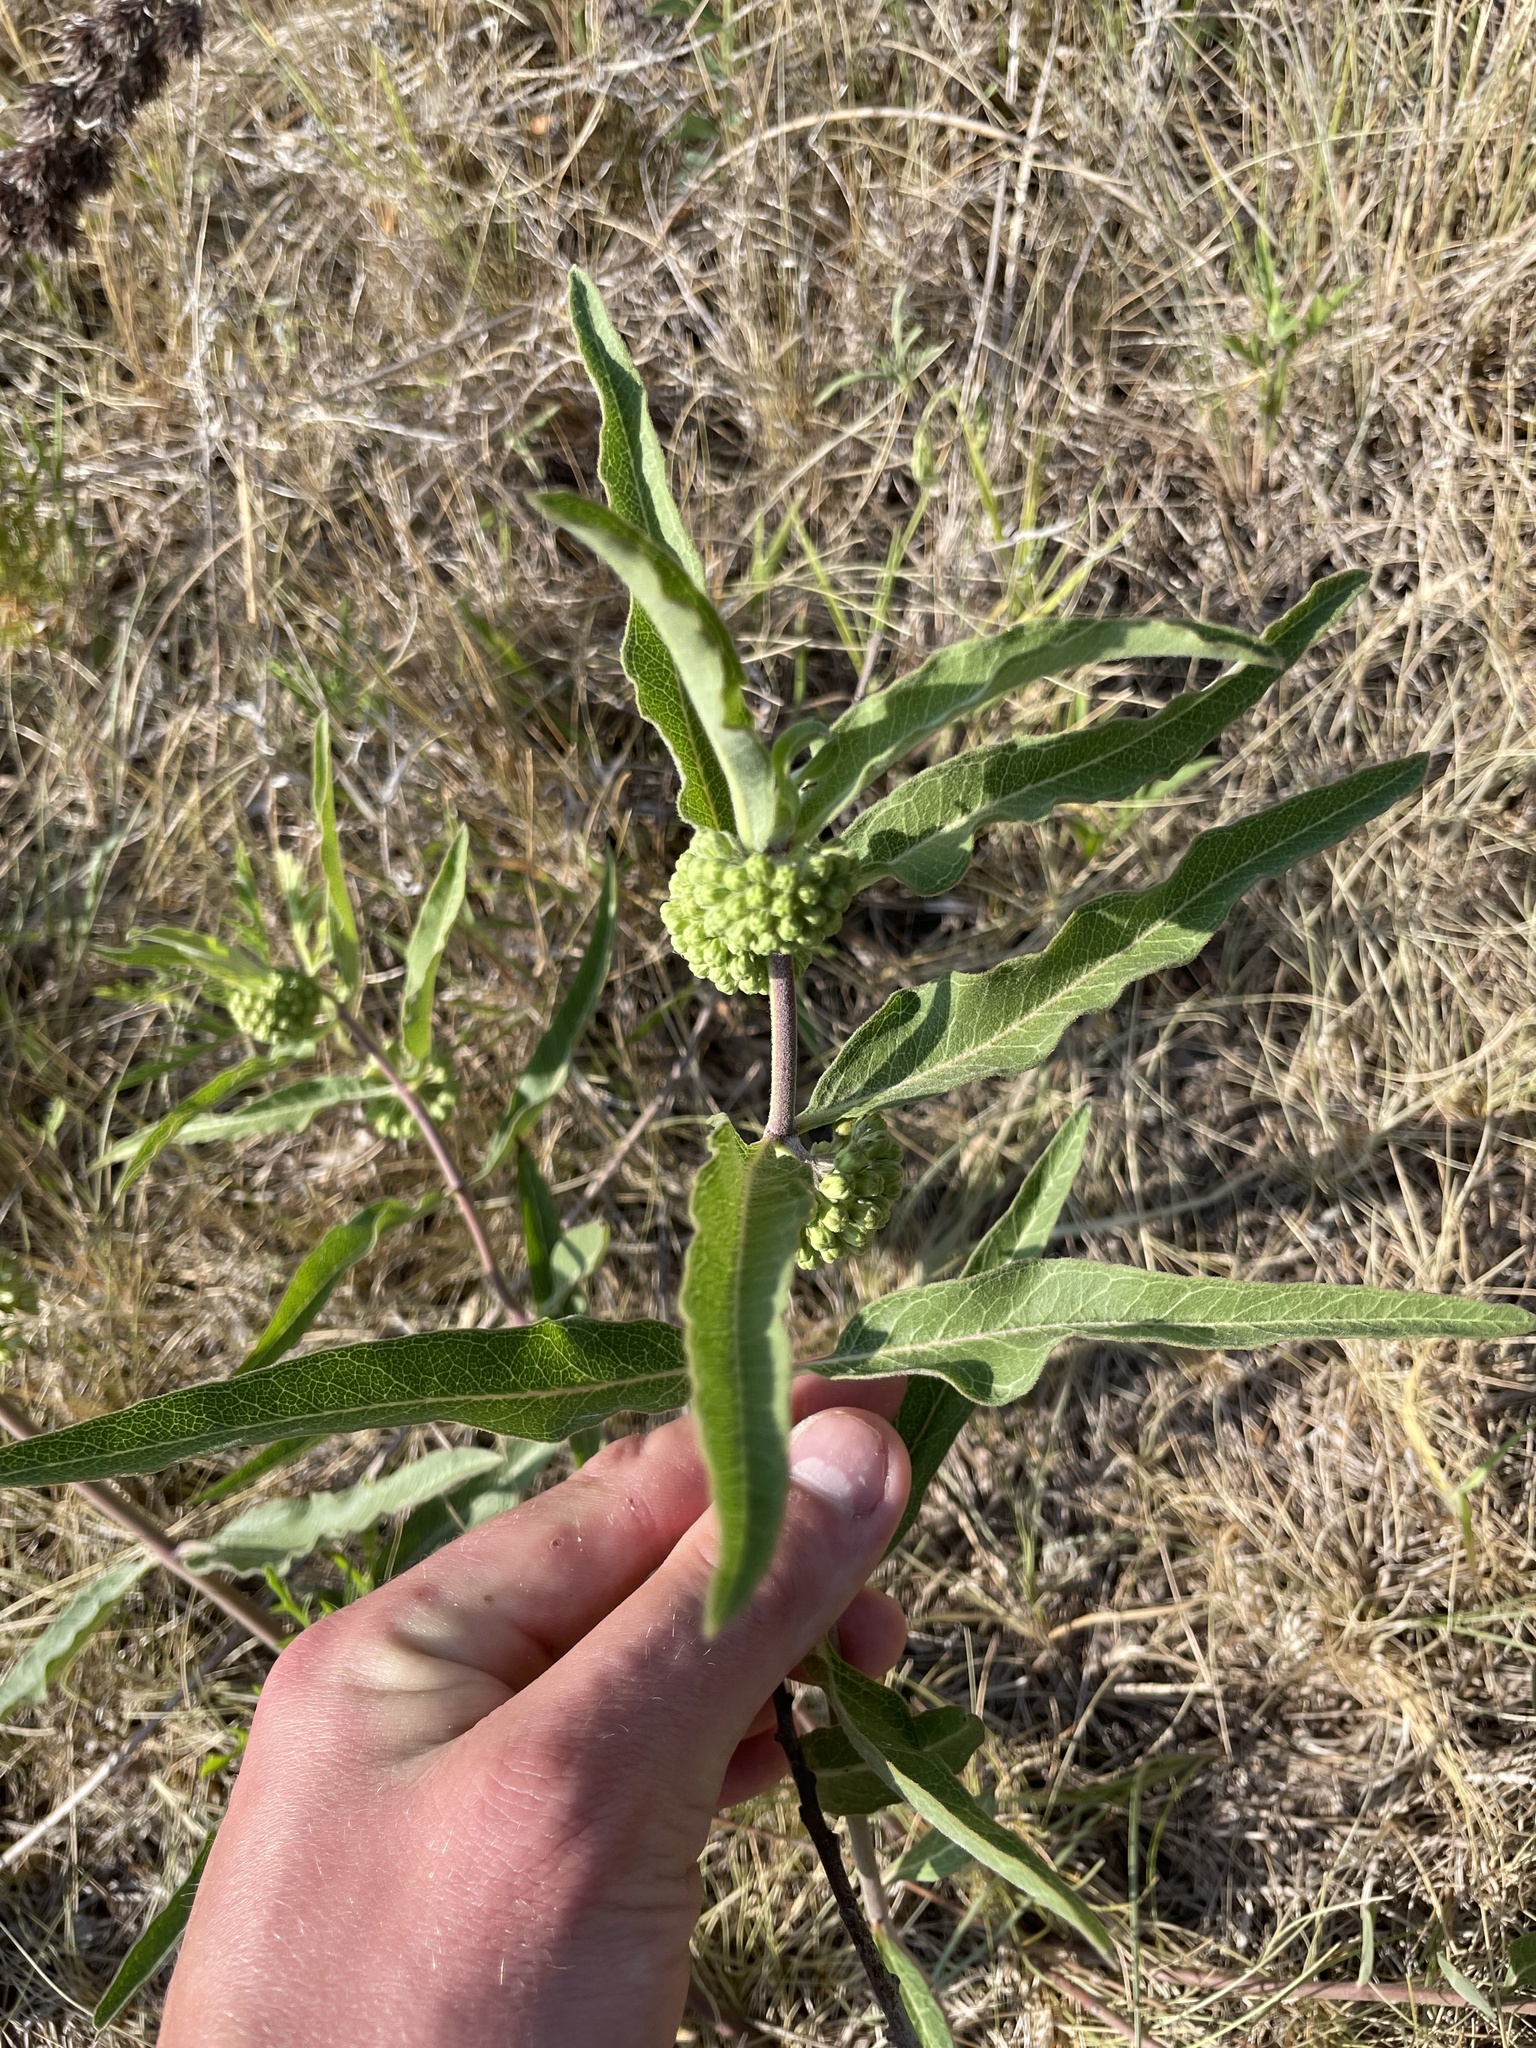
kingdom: Plantae
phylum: Tracheophyta
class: Magnoliopsida
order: Gentianales
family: Apocynaceae
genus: Asclepias
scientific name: Asclepias viridiflora
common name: Green comet milkweed
